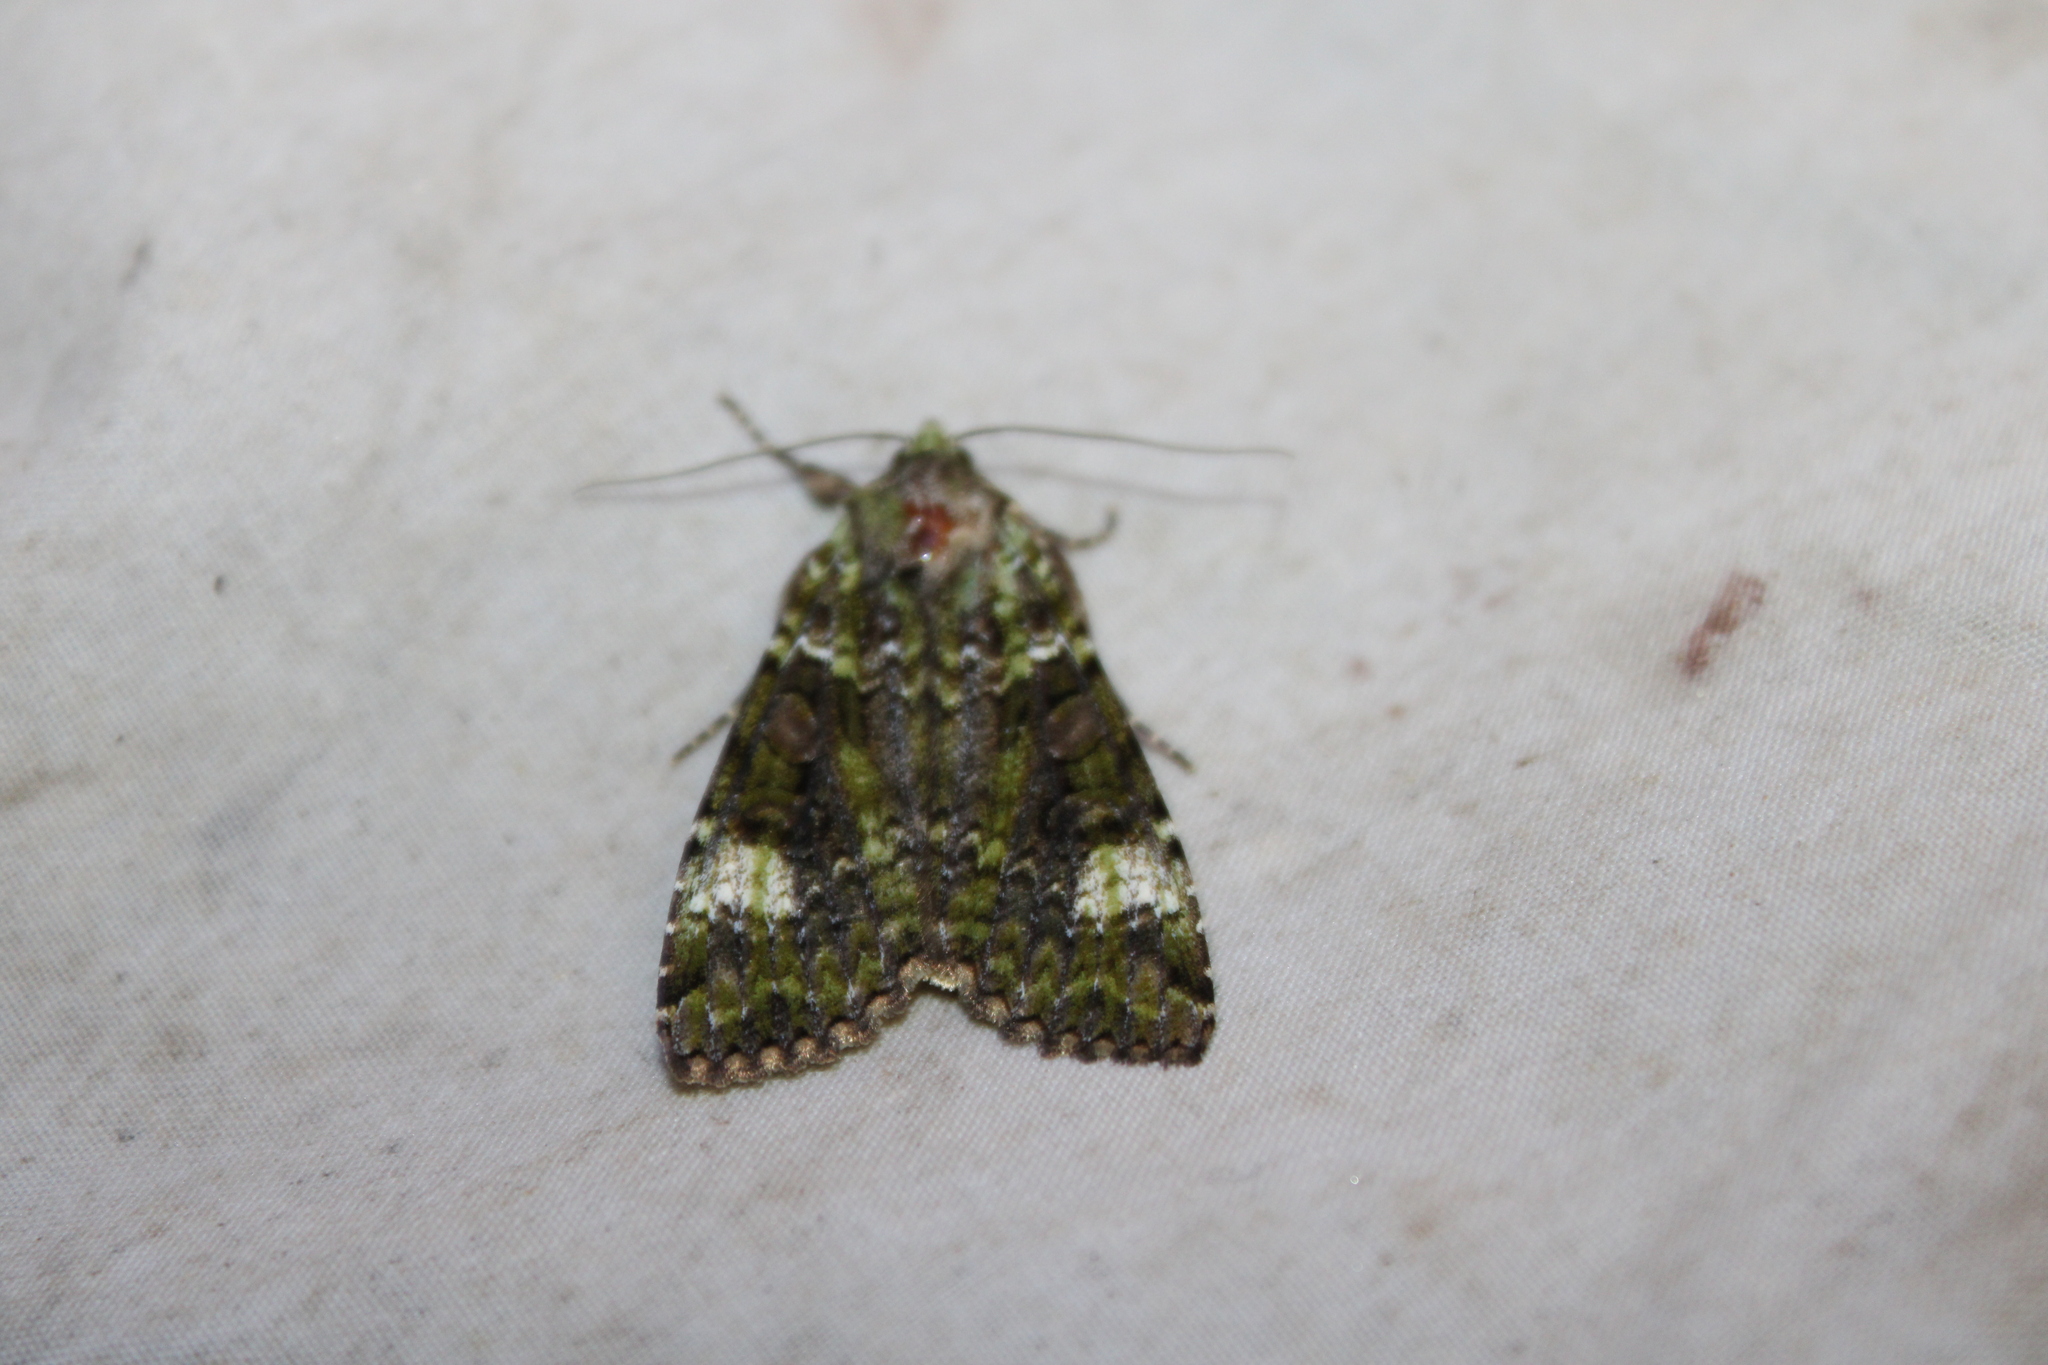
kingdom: Animalia
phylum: Arthropoda
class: Insecta
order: Lepidoptera
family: Noctuidae
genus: Anaplectoides
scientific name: Anaplectoides prasina
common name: Green arches
